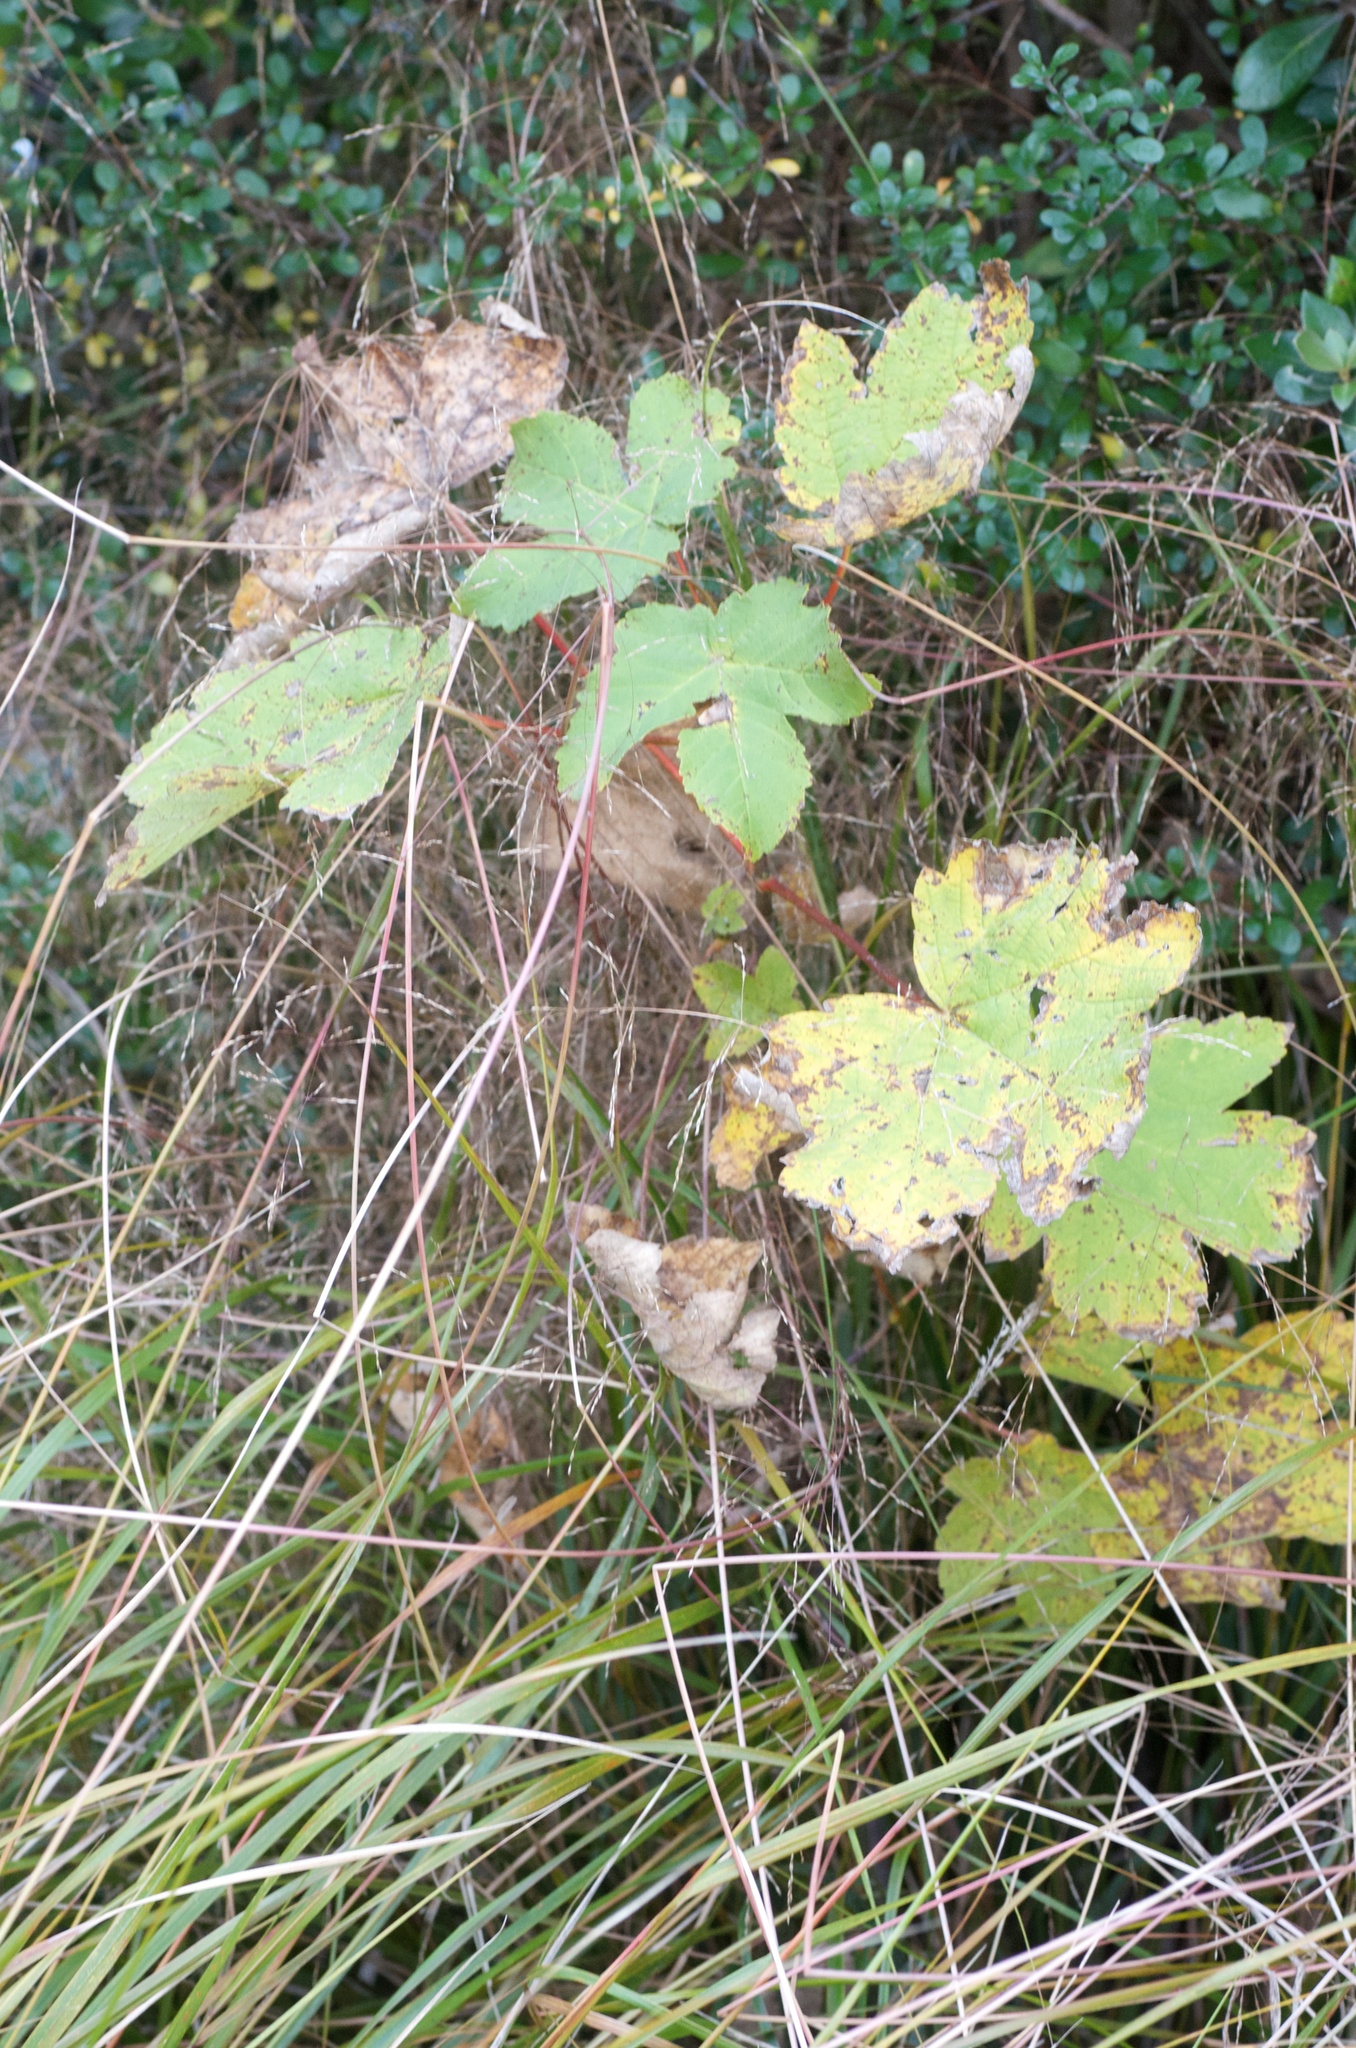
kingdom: Plantae
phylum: Tracheophyta
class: Magnoliopsida
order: Sapindales
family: Sapindaceae
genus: Acer
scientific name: Acer pseudoplatanus
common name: Sycamore
